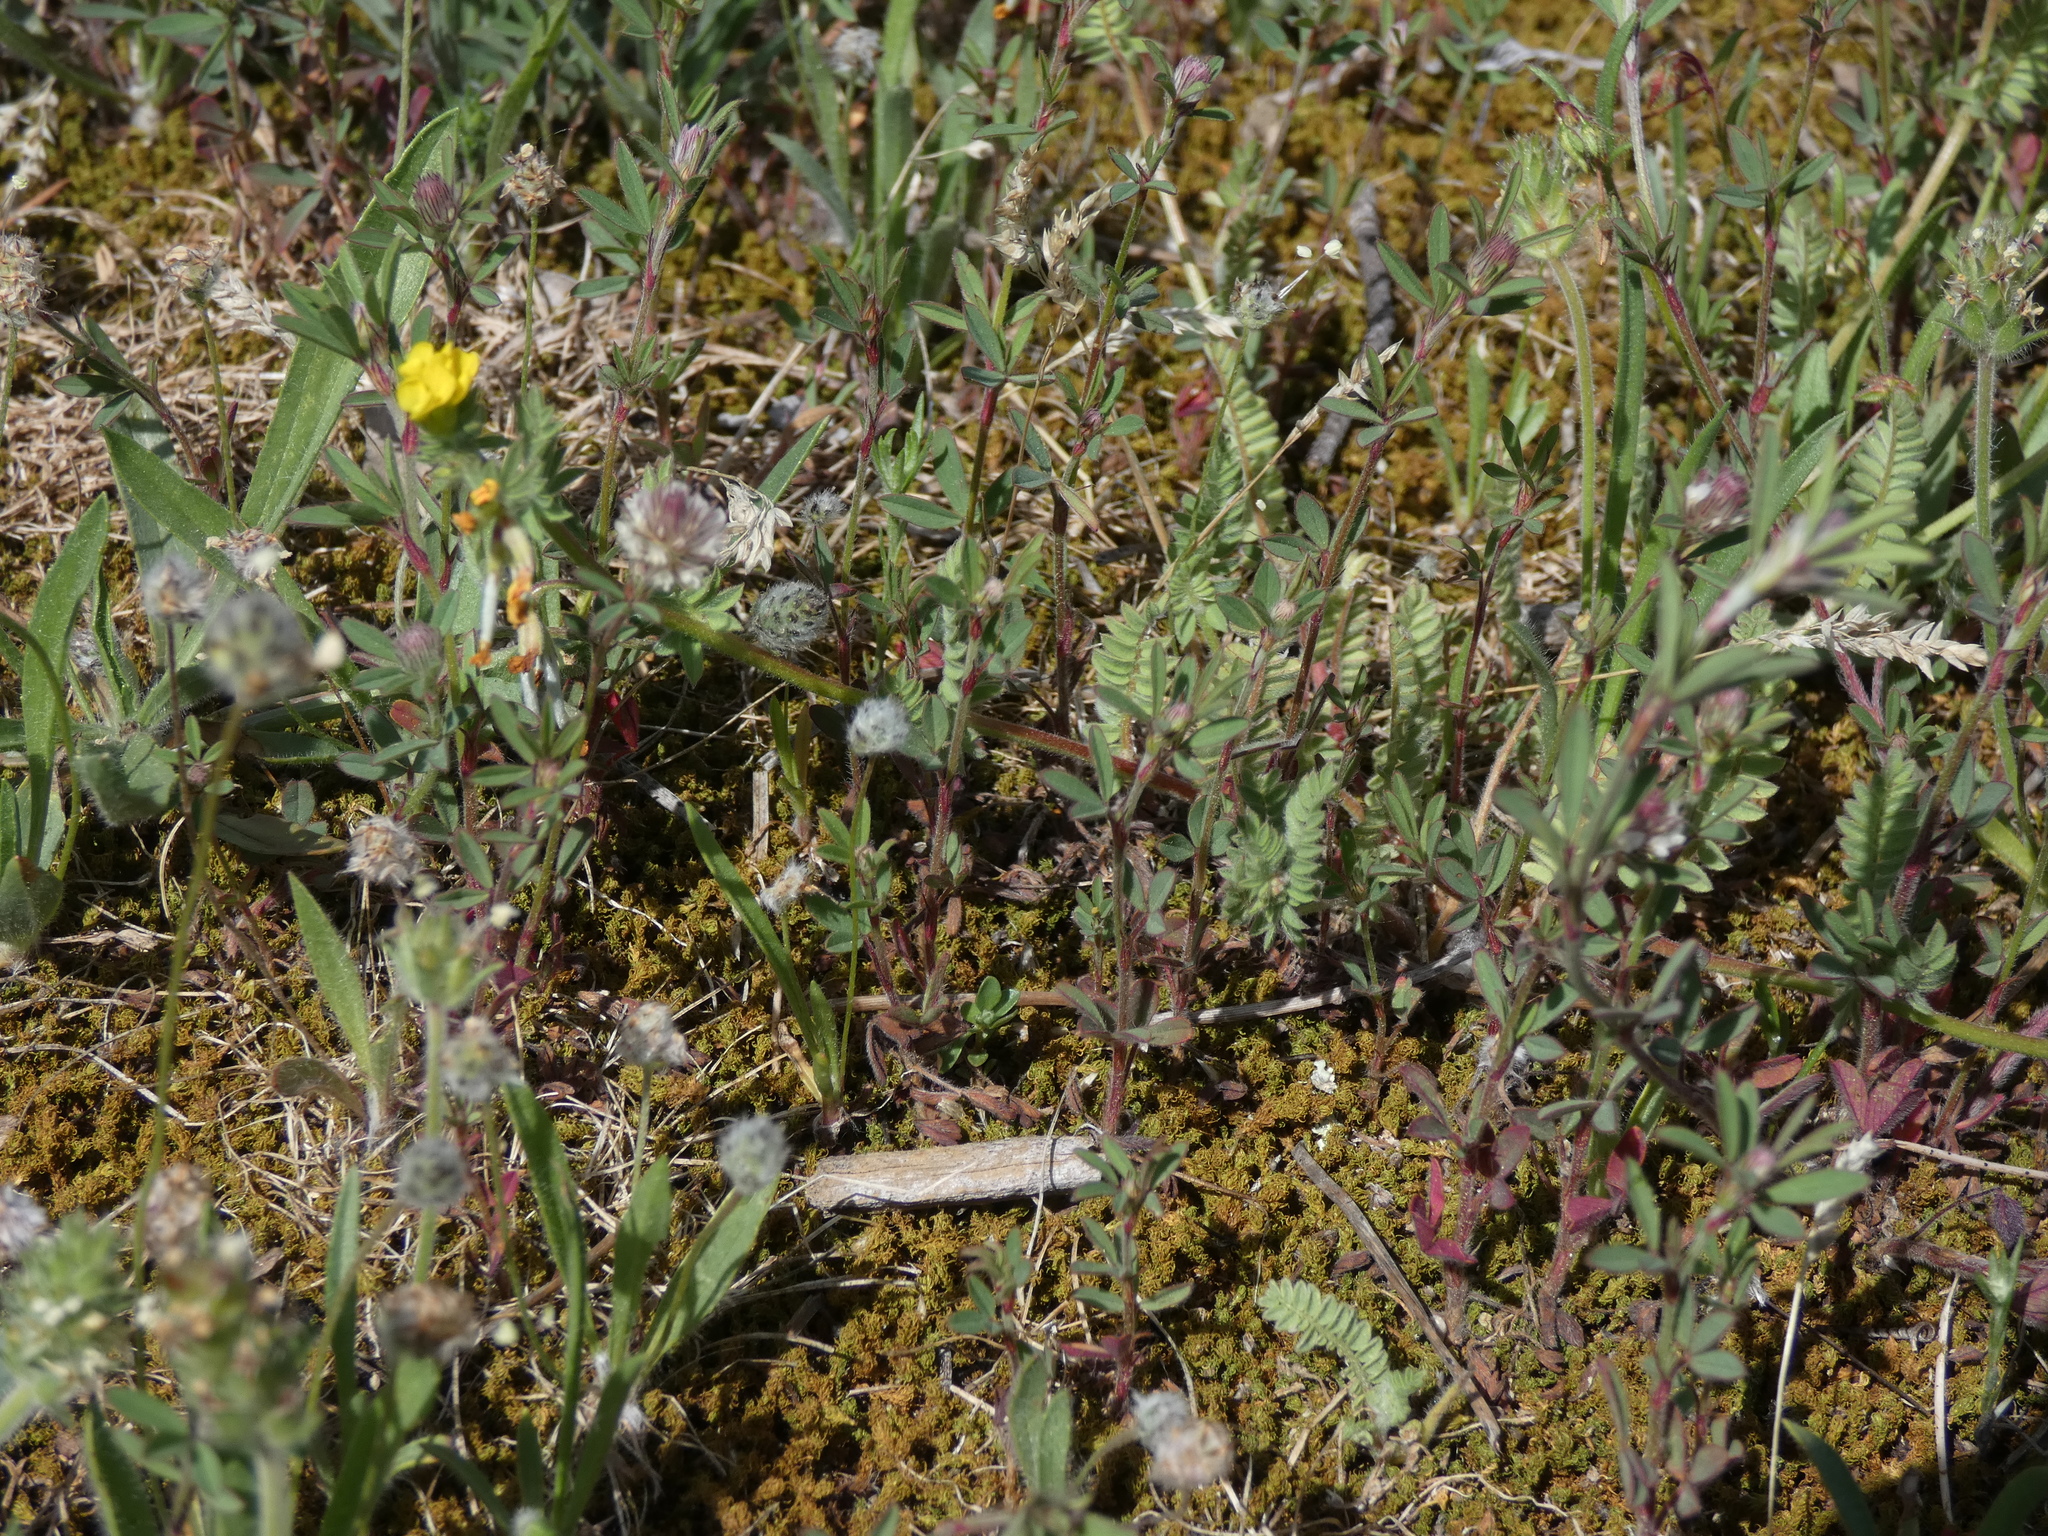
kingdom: Plantae
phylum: Tracheophyta
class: Magnoliopsida
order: Fabales
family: Fabaceae
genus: Ornithopus
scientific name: Ornithopus compressus
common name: Yellow serradella
